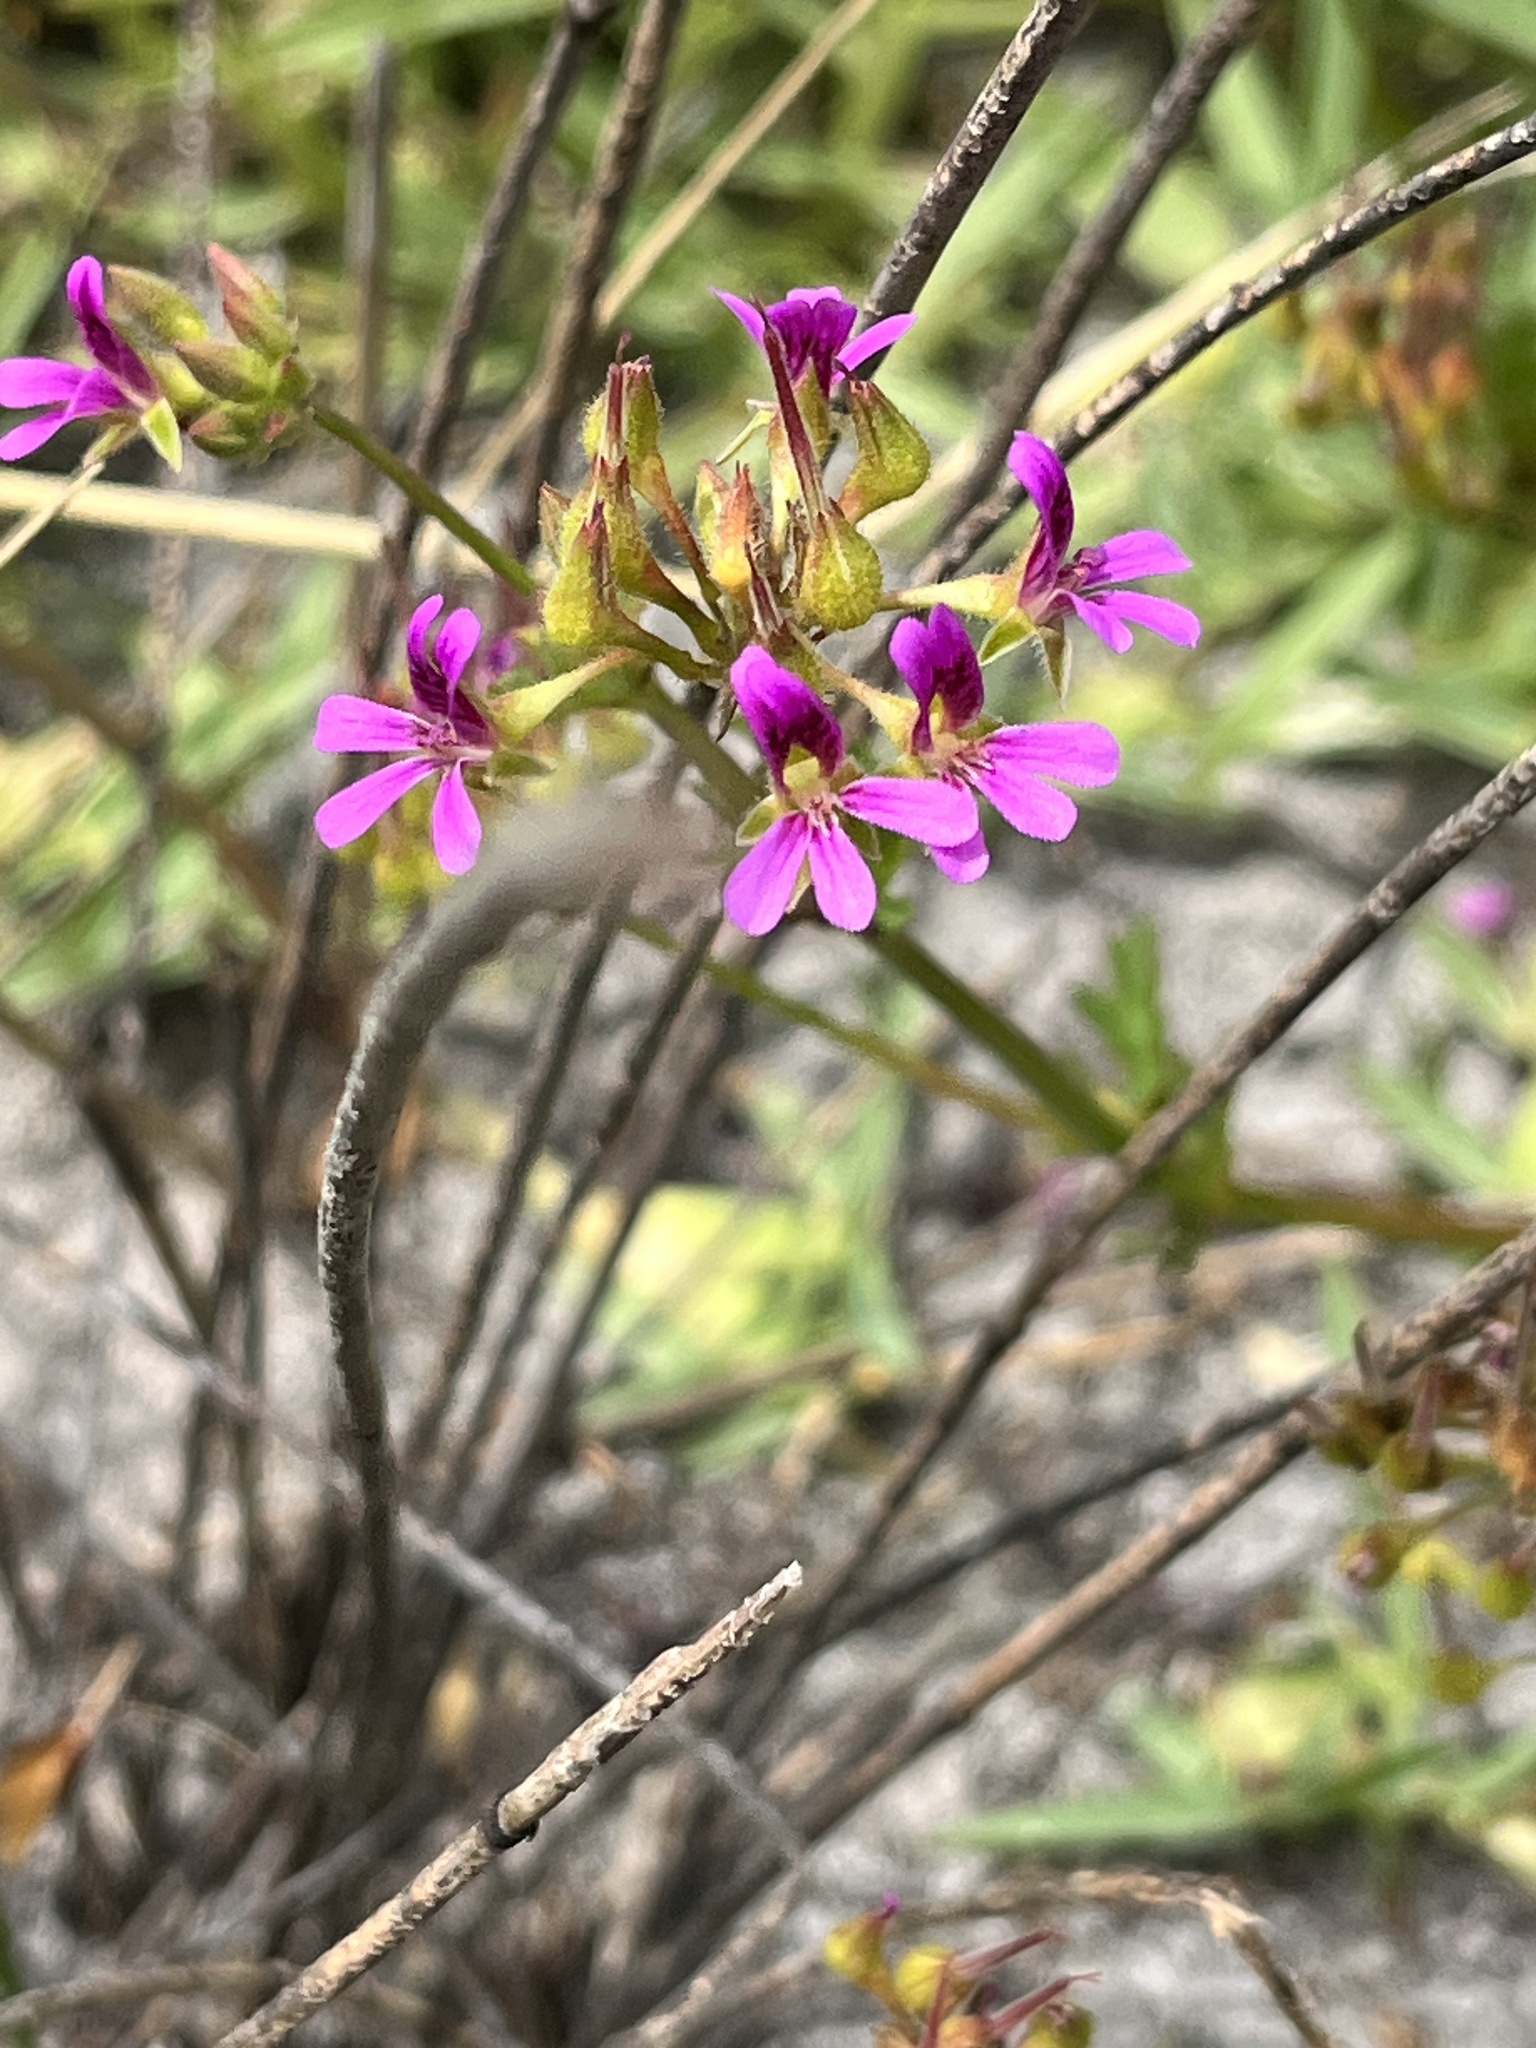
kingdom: Plantae
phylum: Tracheophyta
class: Magnoliopsida
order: Geraniales
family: Geraniaceae
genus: Pelargonium
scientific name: Pelargonium grossularioides
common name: Gooseberry geranium
